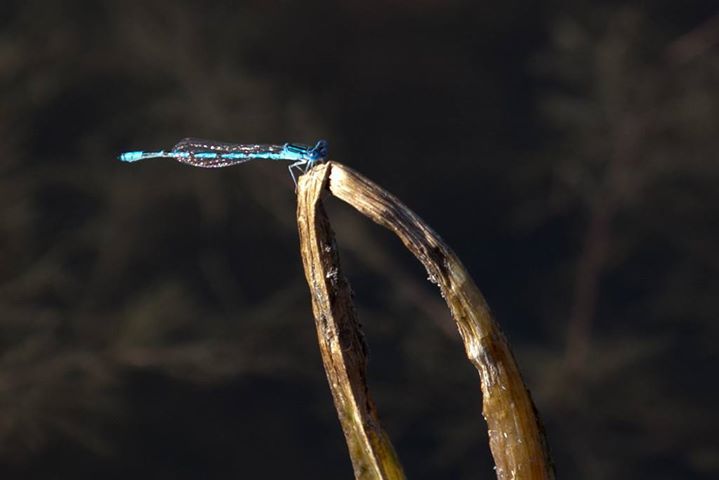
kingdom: Animalia
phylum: Arthropoda
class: Insecta
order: Odonata
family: Coenagrionidae
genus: Enallagma
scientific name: Enallagma basidens
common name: Double-striped bluet
